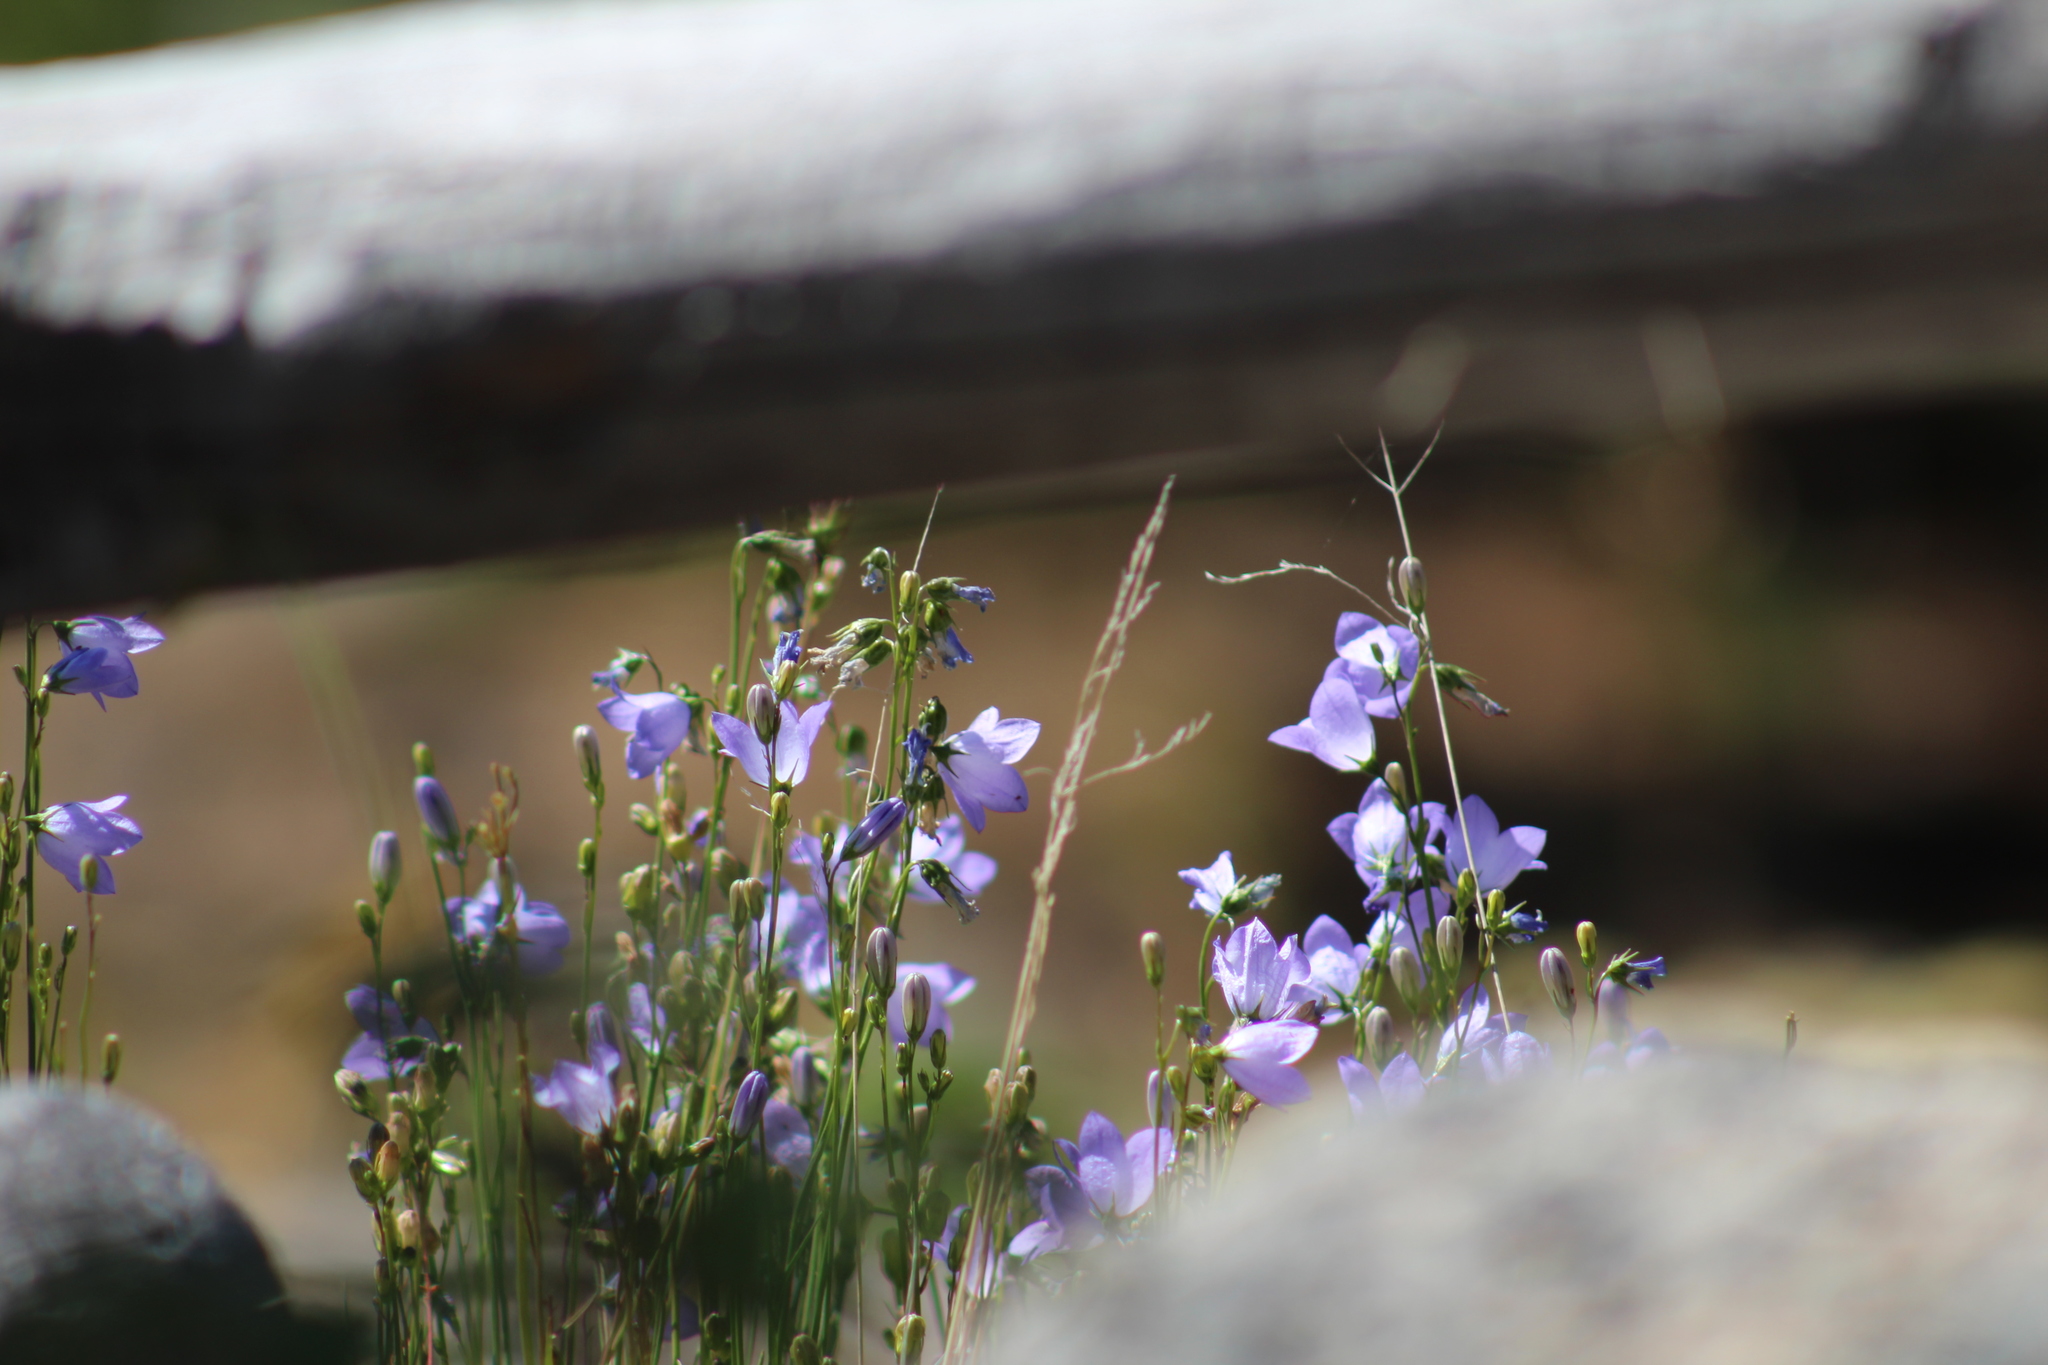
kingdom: Plantae
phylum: Tracheophyta
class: Magnoliopsida
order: Asterales
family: Campanulaceae
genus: Campanula
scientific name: Campanula petiolata
